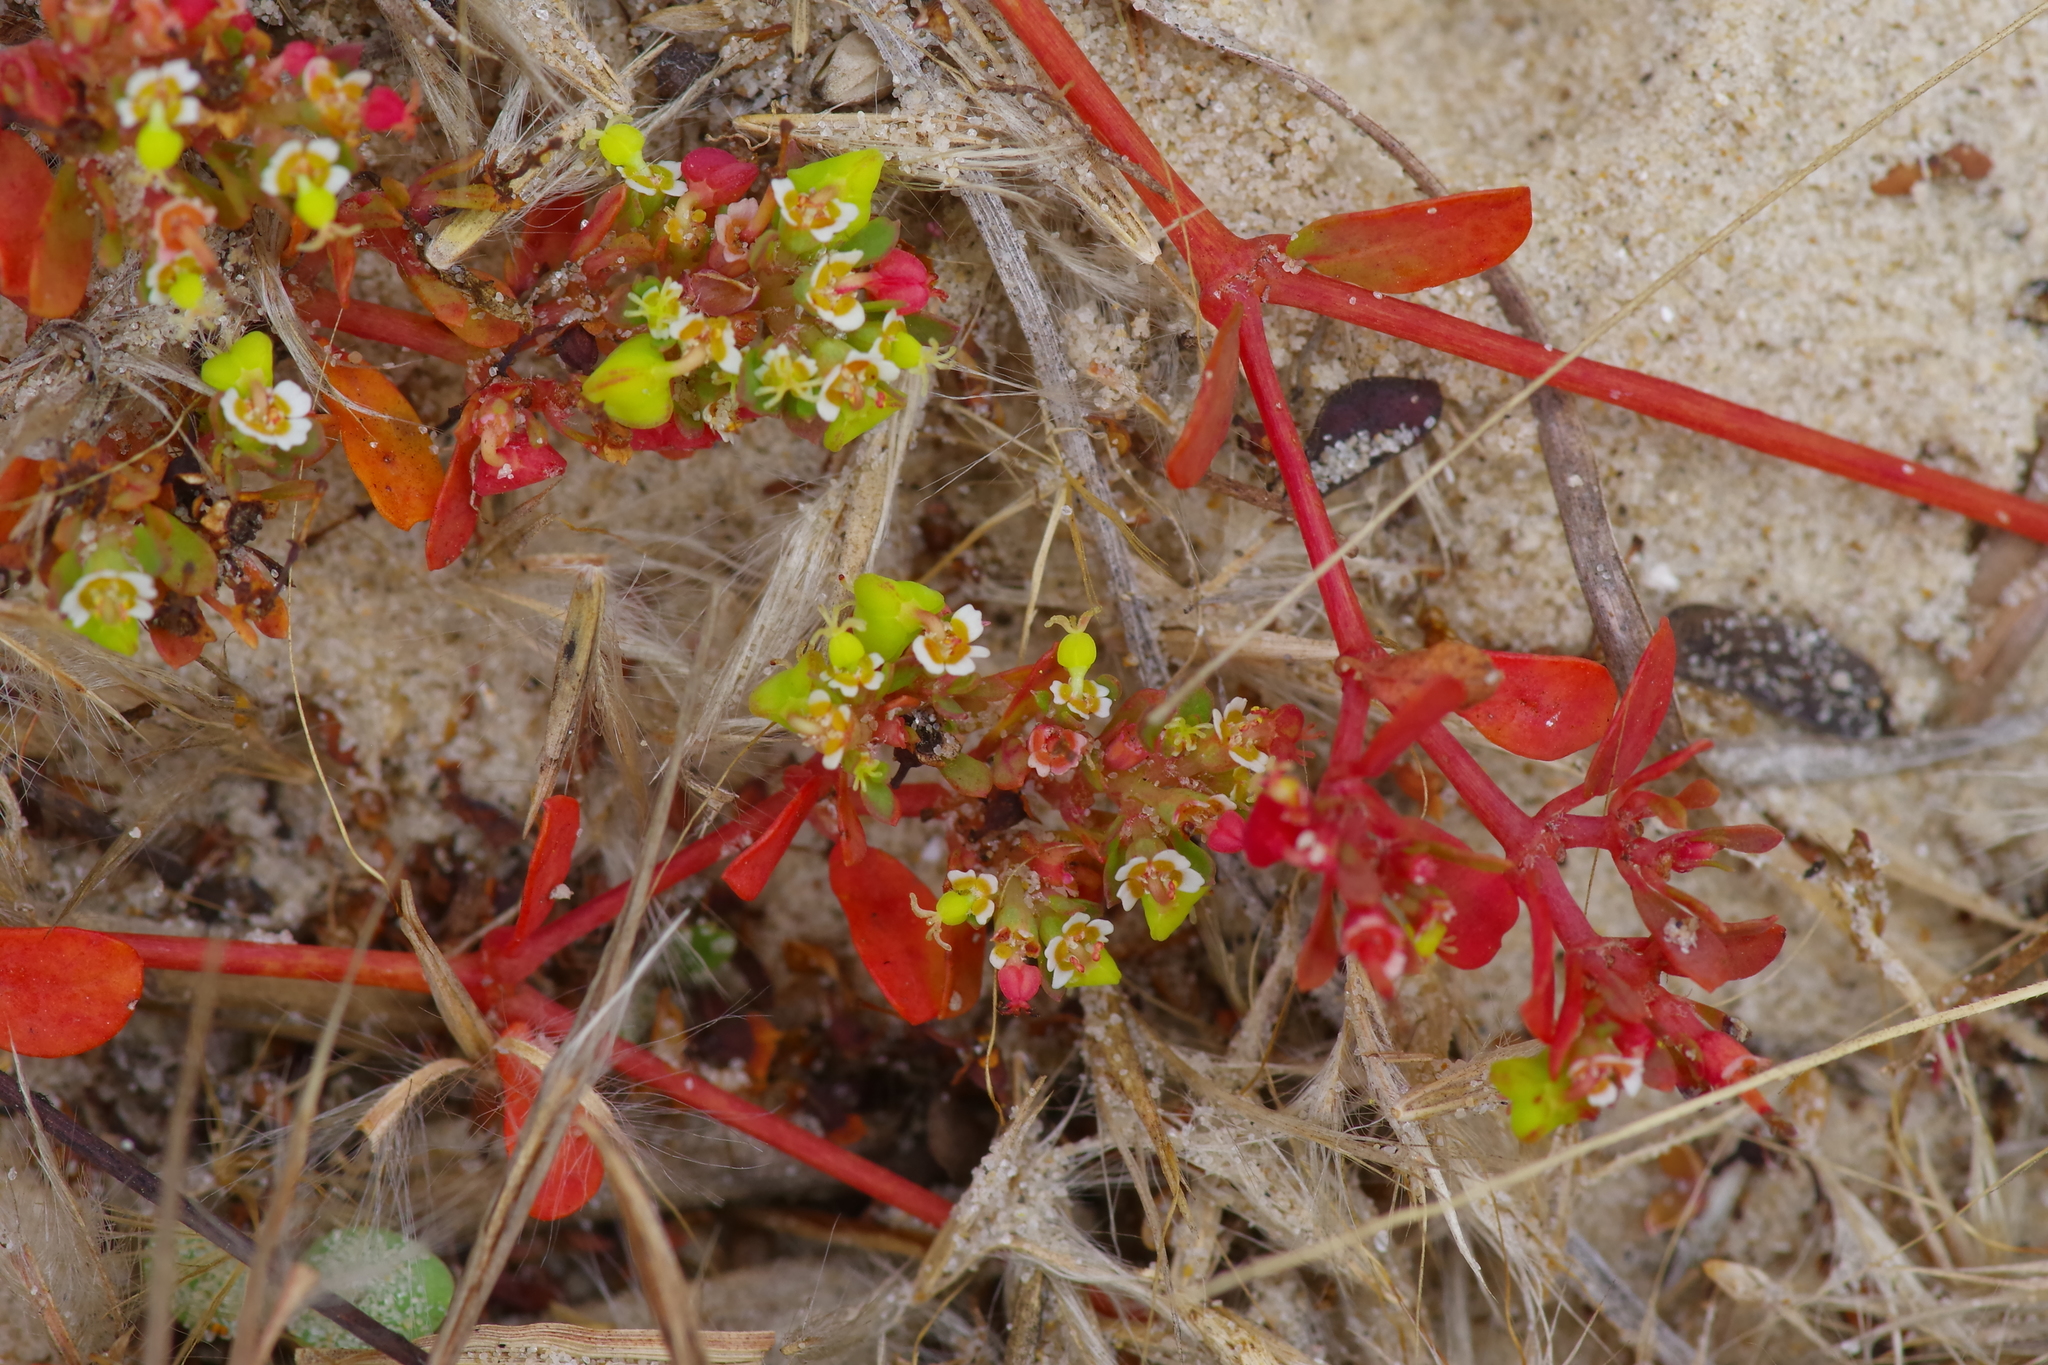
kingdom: Plantae
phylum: Tracheophyta
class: Magnoliopsida
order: Malpighiales
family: Euphorbiaceae
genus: Euphorbia
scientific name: Euphorbia cordifolia
